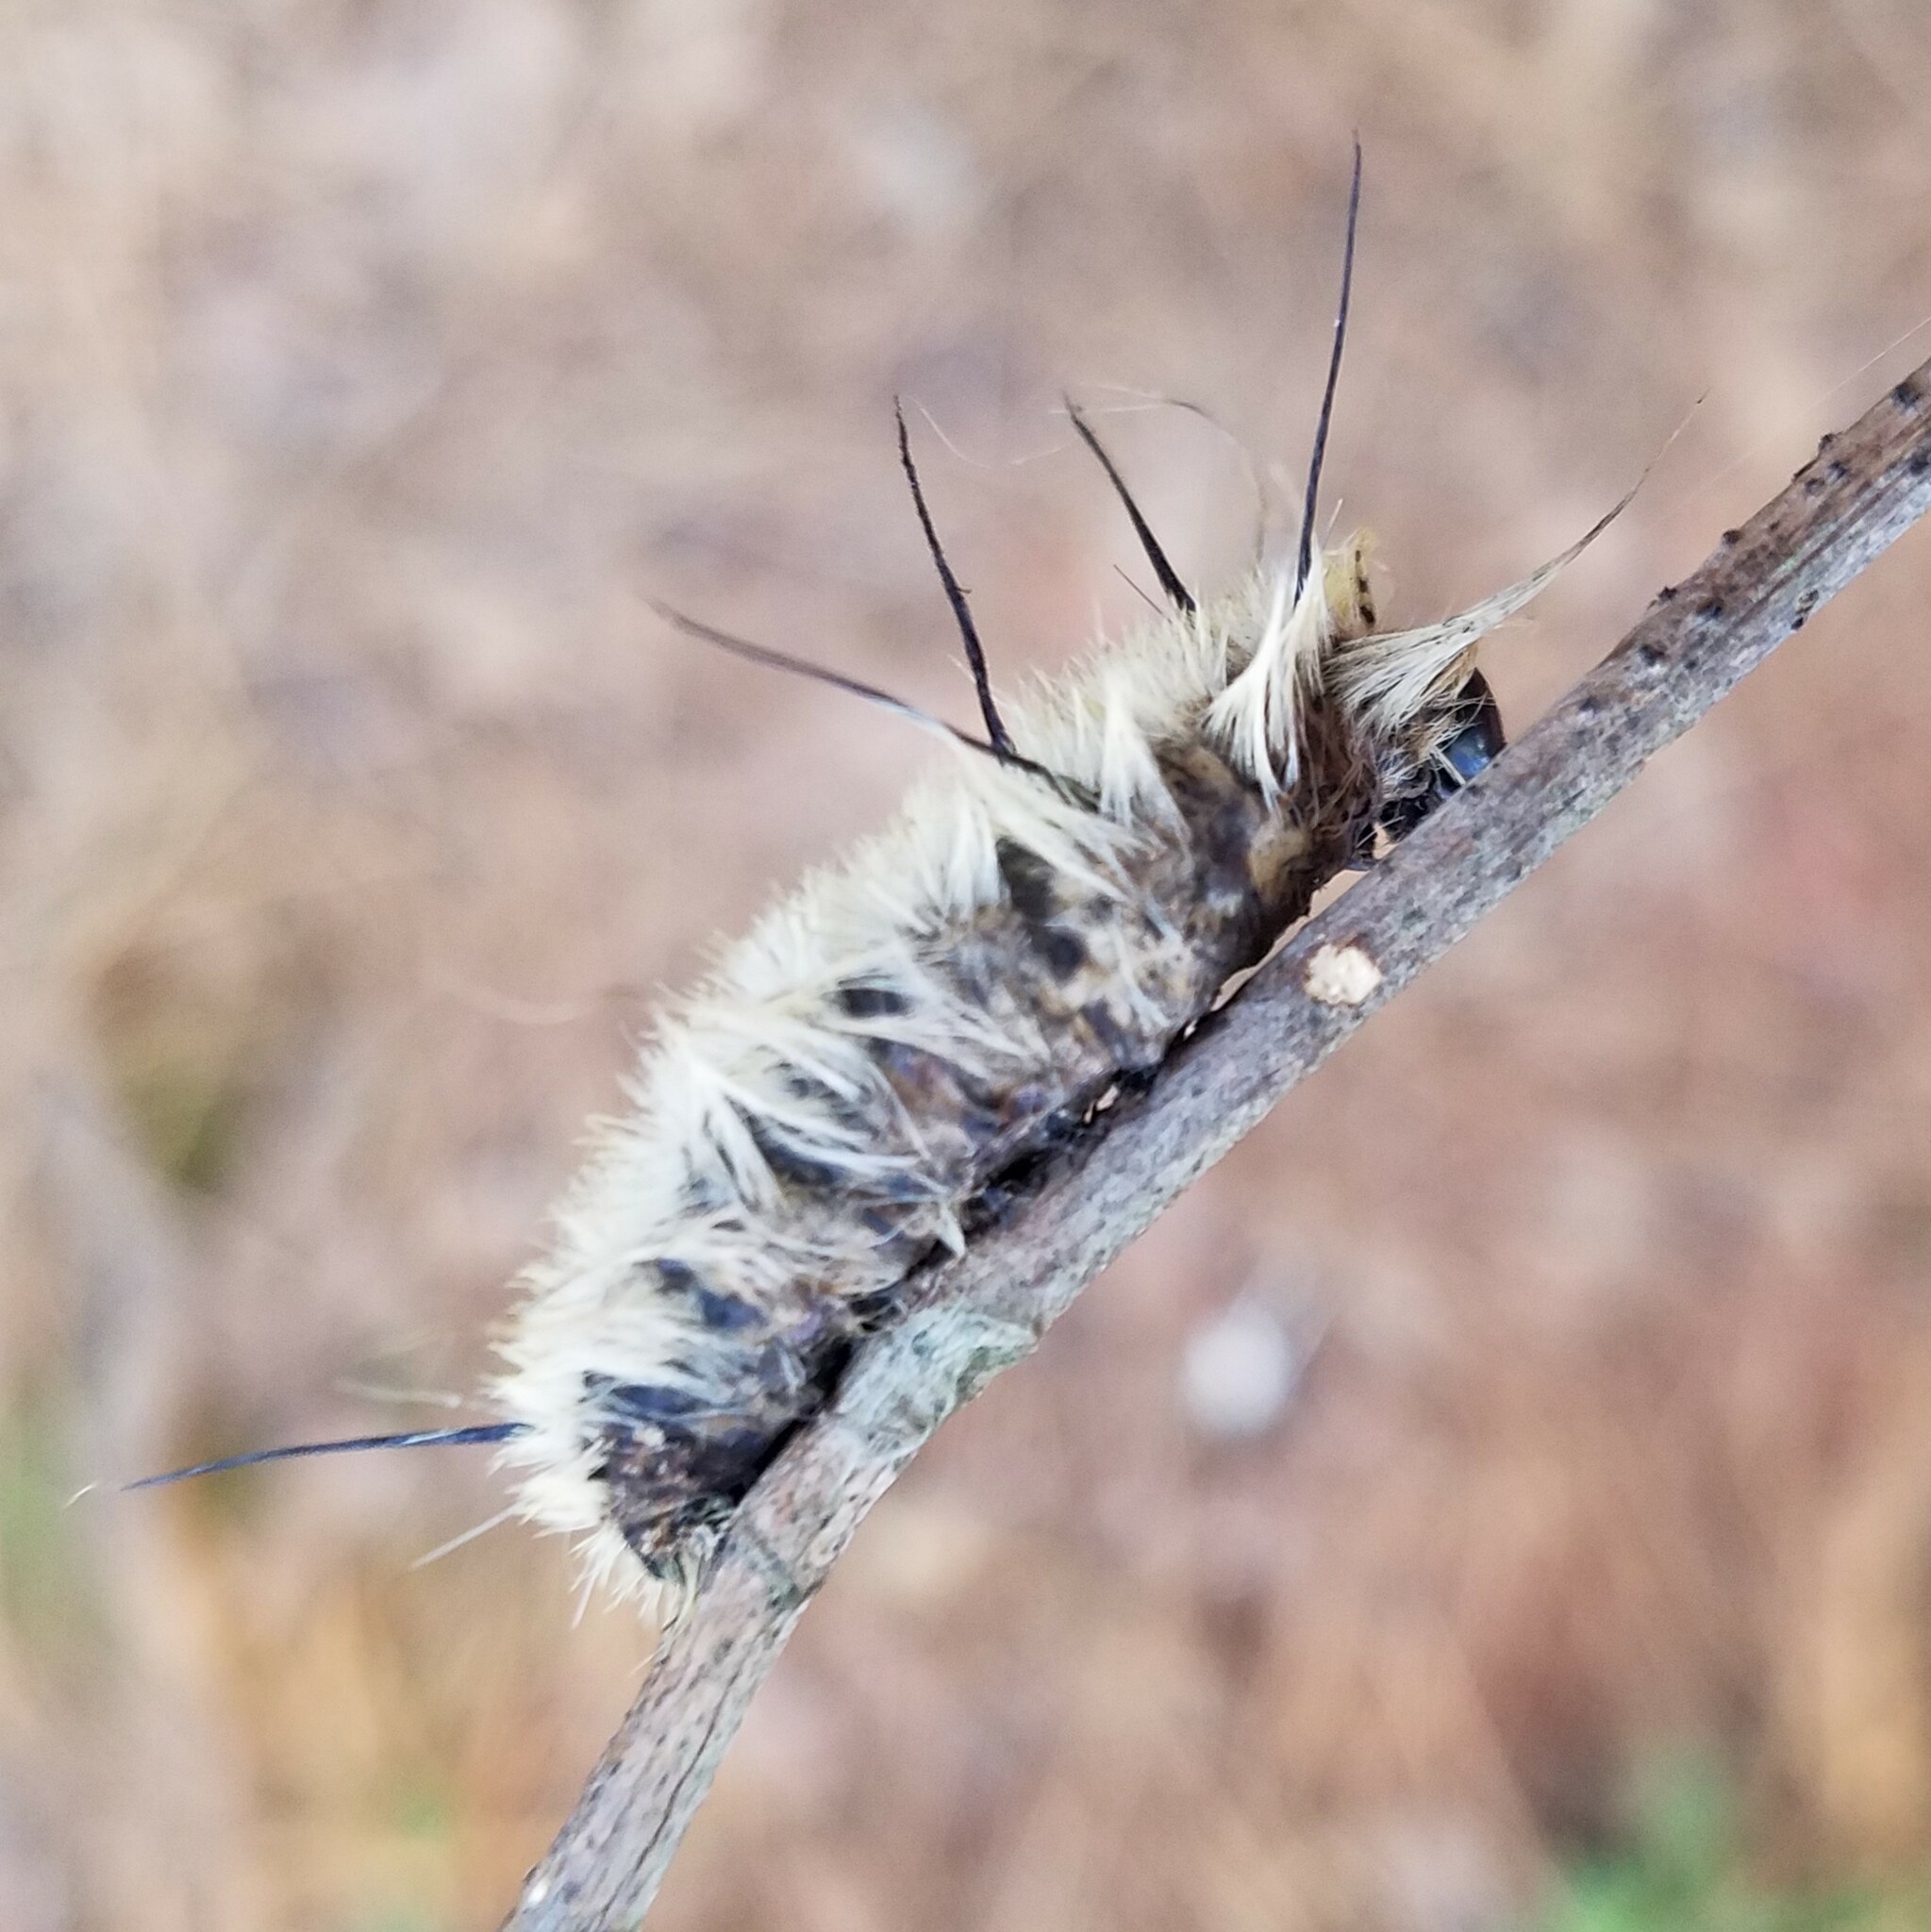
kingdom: Animalia
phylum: Arthropoda
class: Insecta
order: Lepidoptera
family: Noctuidae
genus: Acronicta
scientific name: Acronicta americana
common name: American dagger
